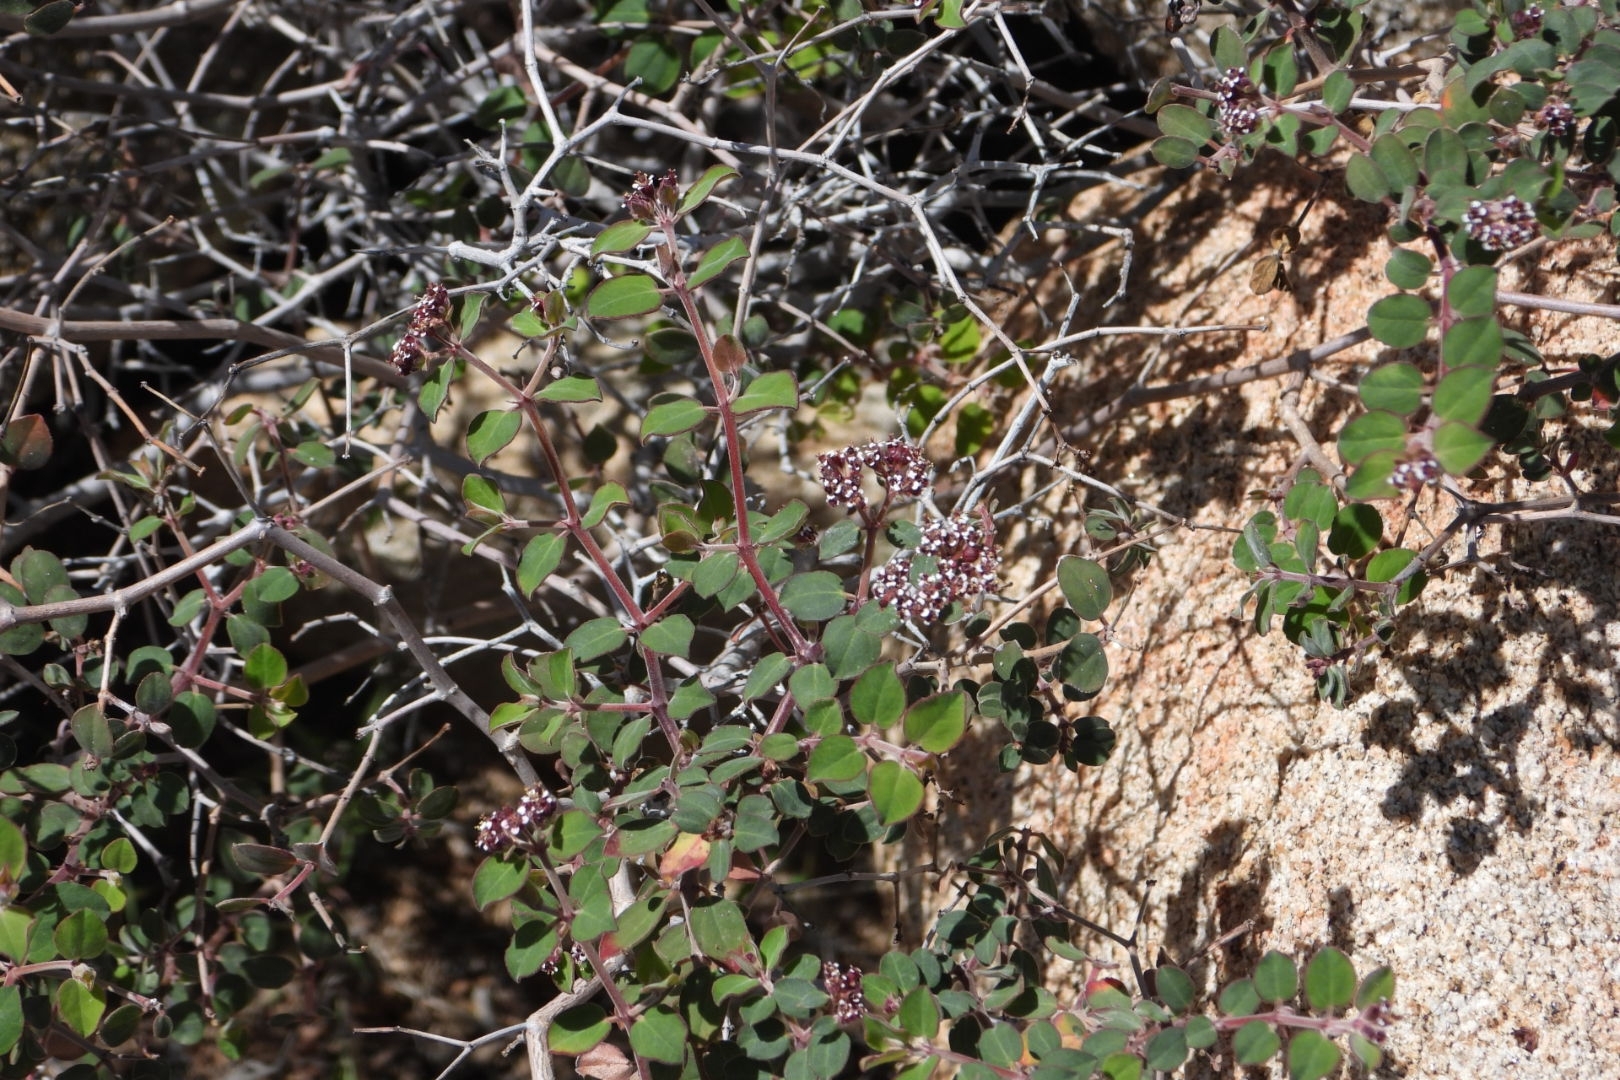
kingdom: Plantae
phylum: Tracheophyta
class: Magnoliopsida
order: Malpighiales
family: Euphorbiaceae
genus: Euphorbia
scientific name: Euphorbia tomentulosa
